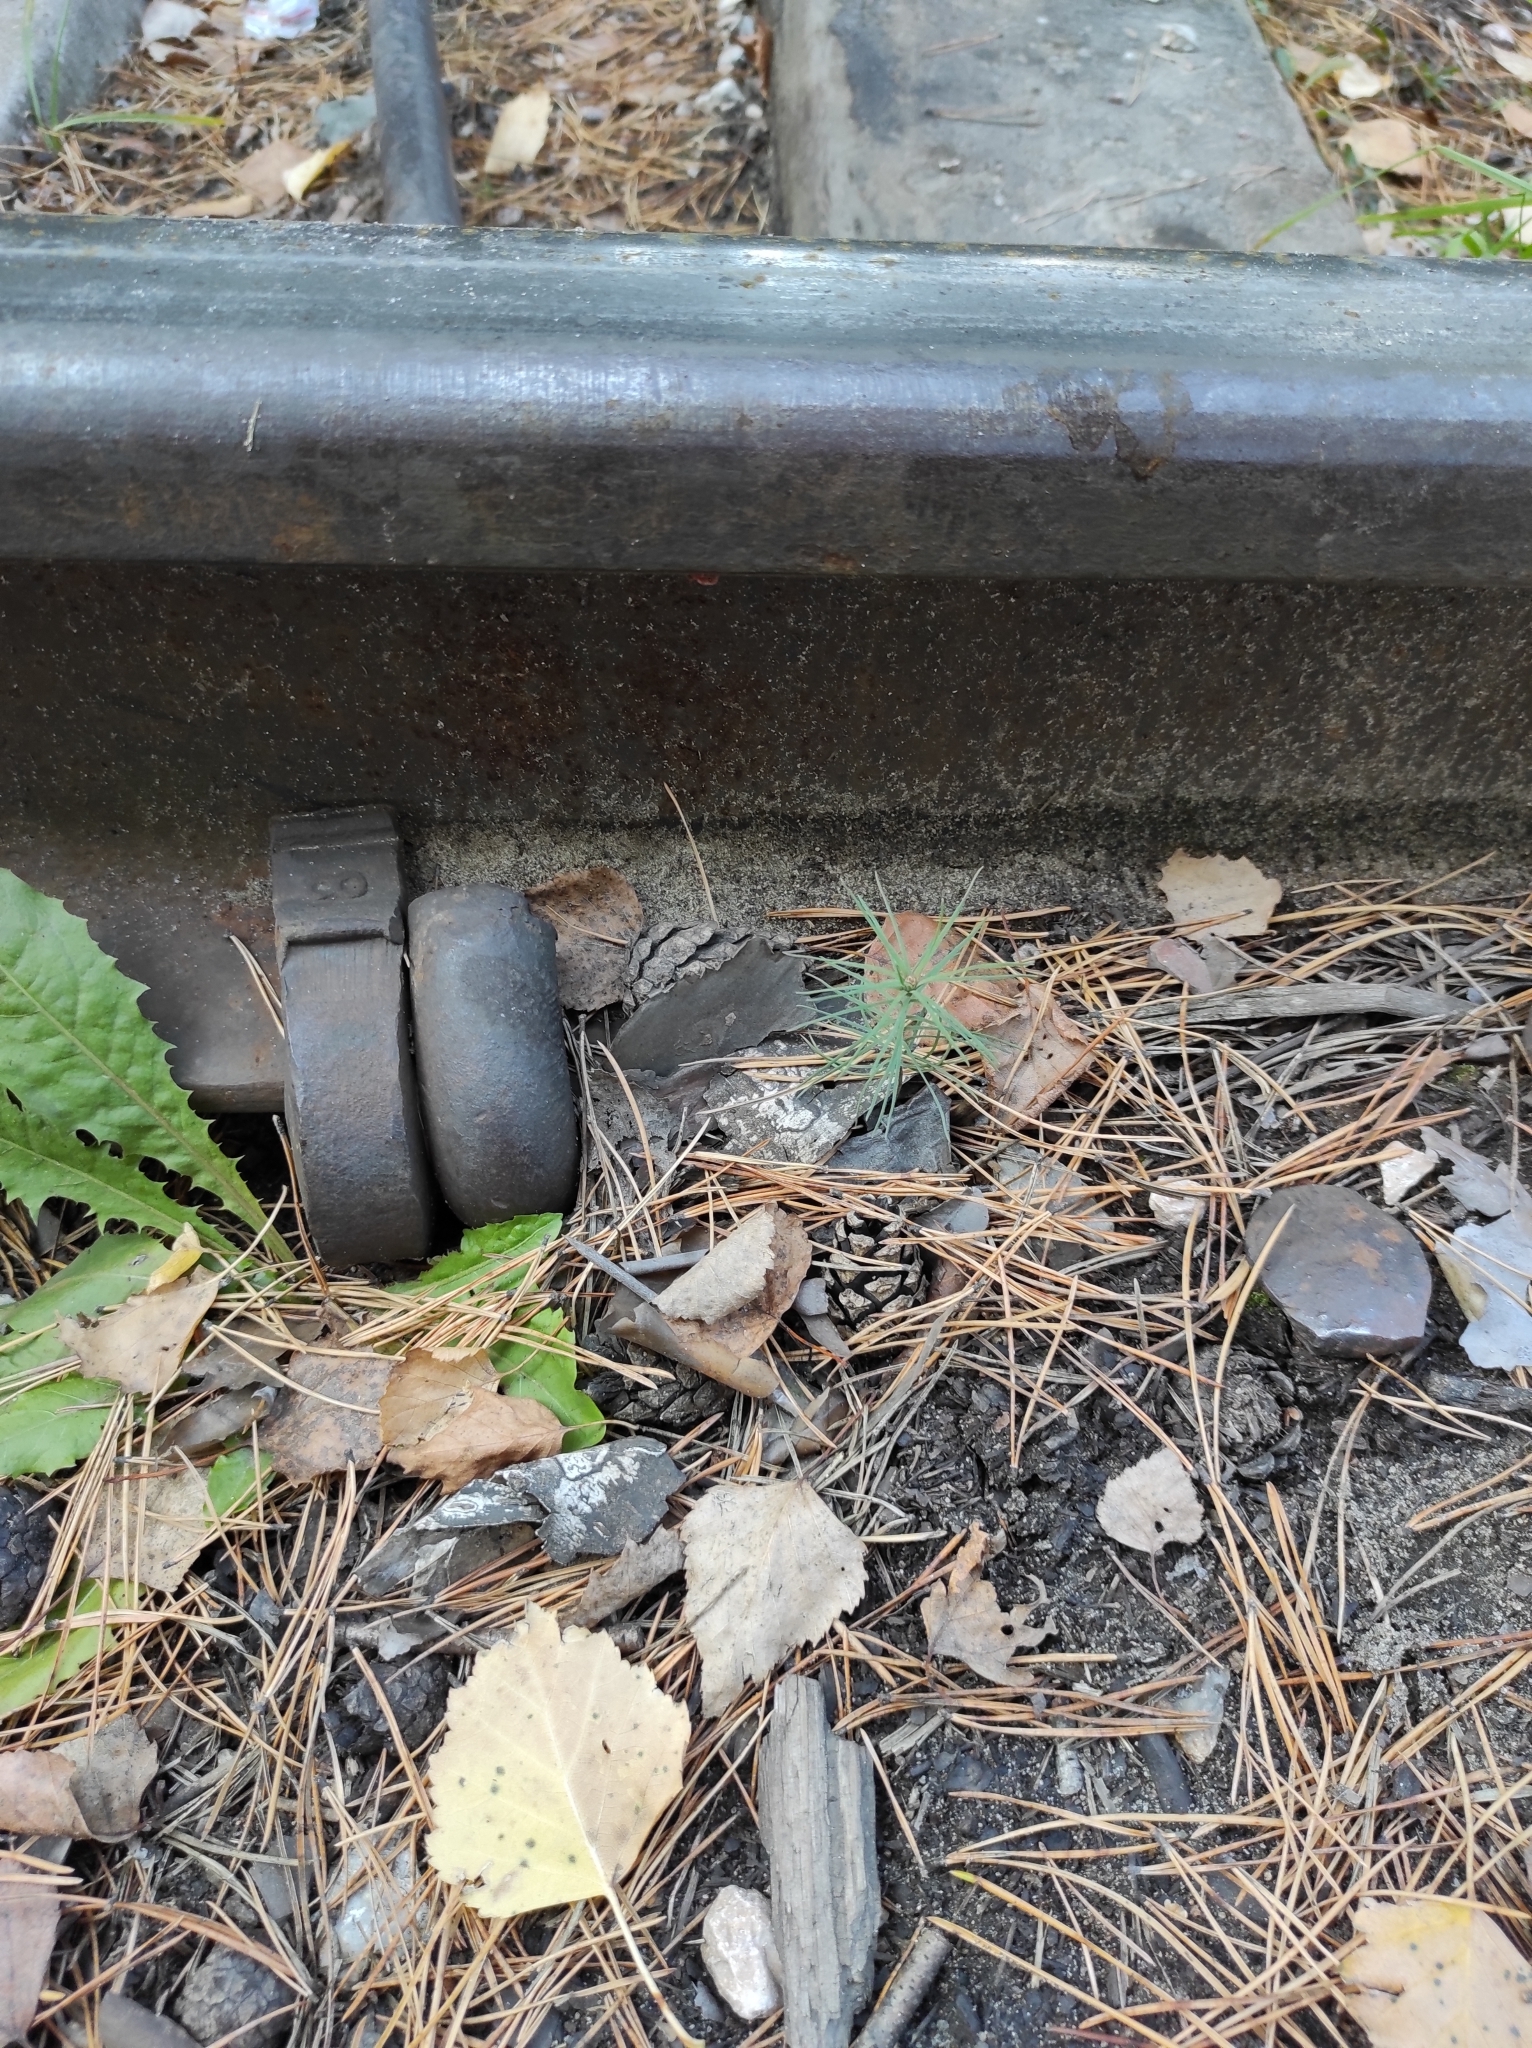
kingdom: Plantae
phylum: Tracheophyta
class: Pinopsida
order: Pinales
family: Pinaceae
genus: Pinus
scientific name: Pinus sylvestris
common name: Scots pine
